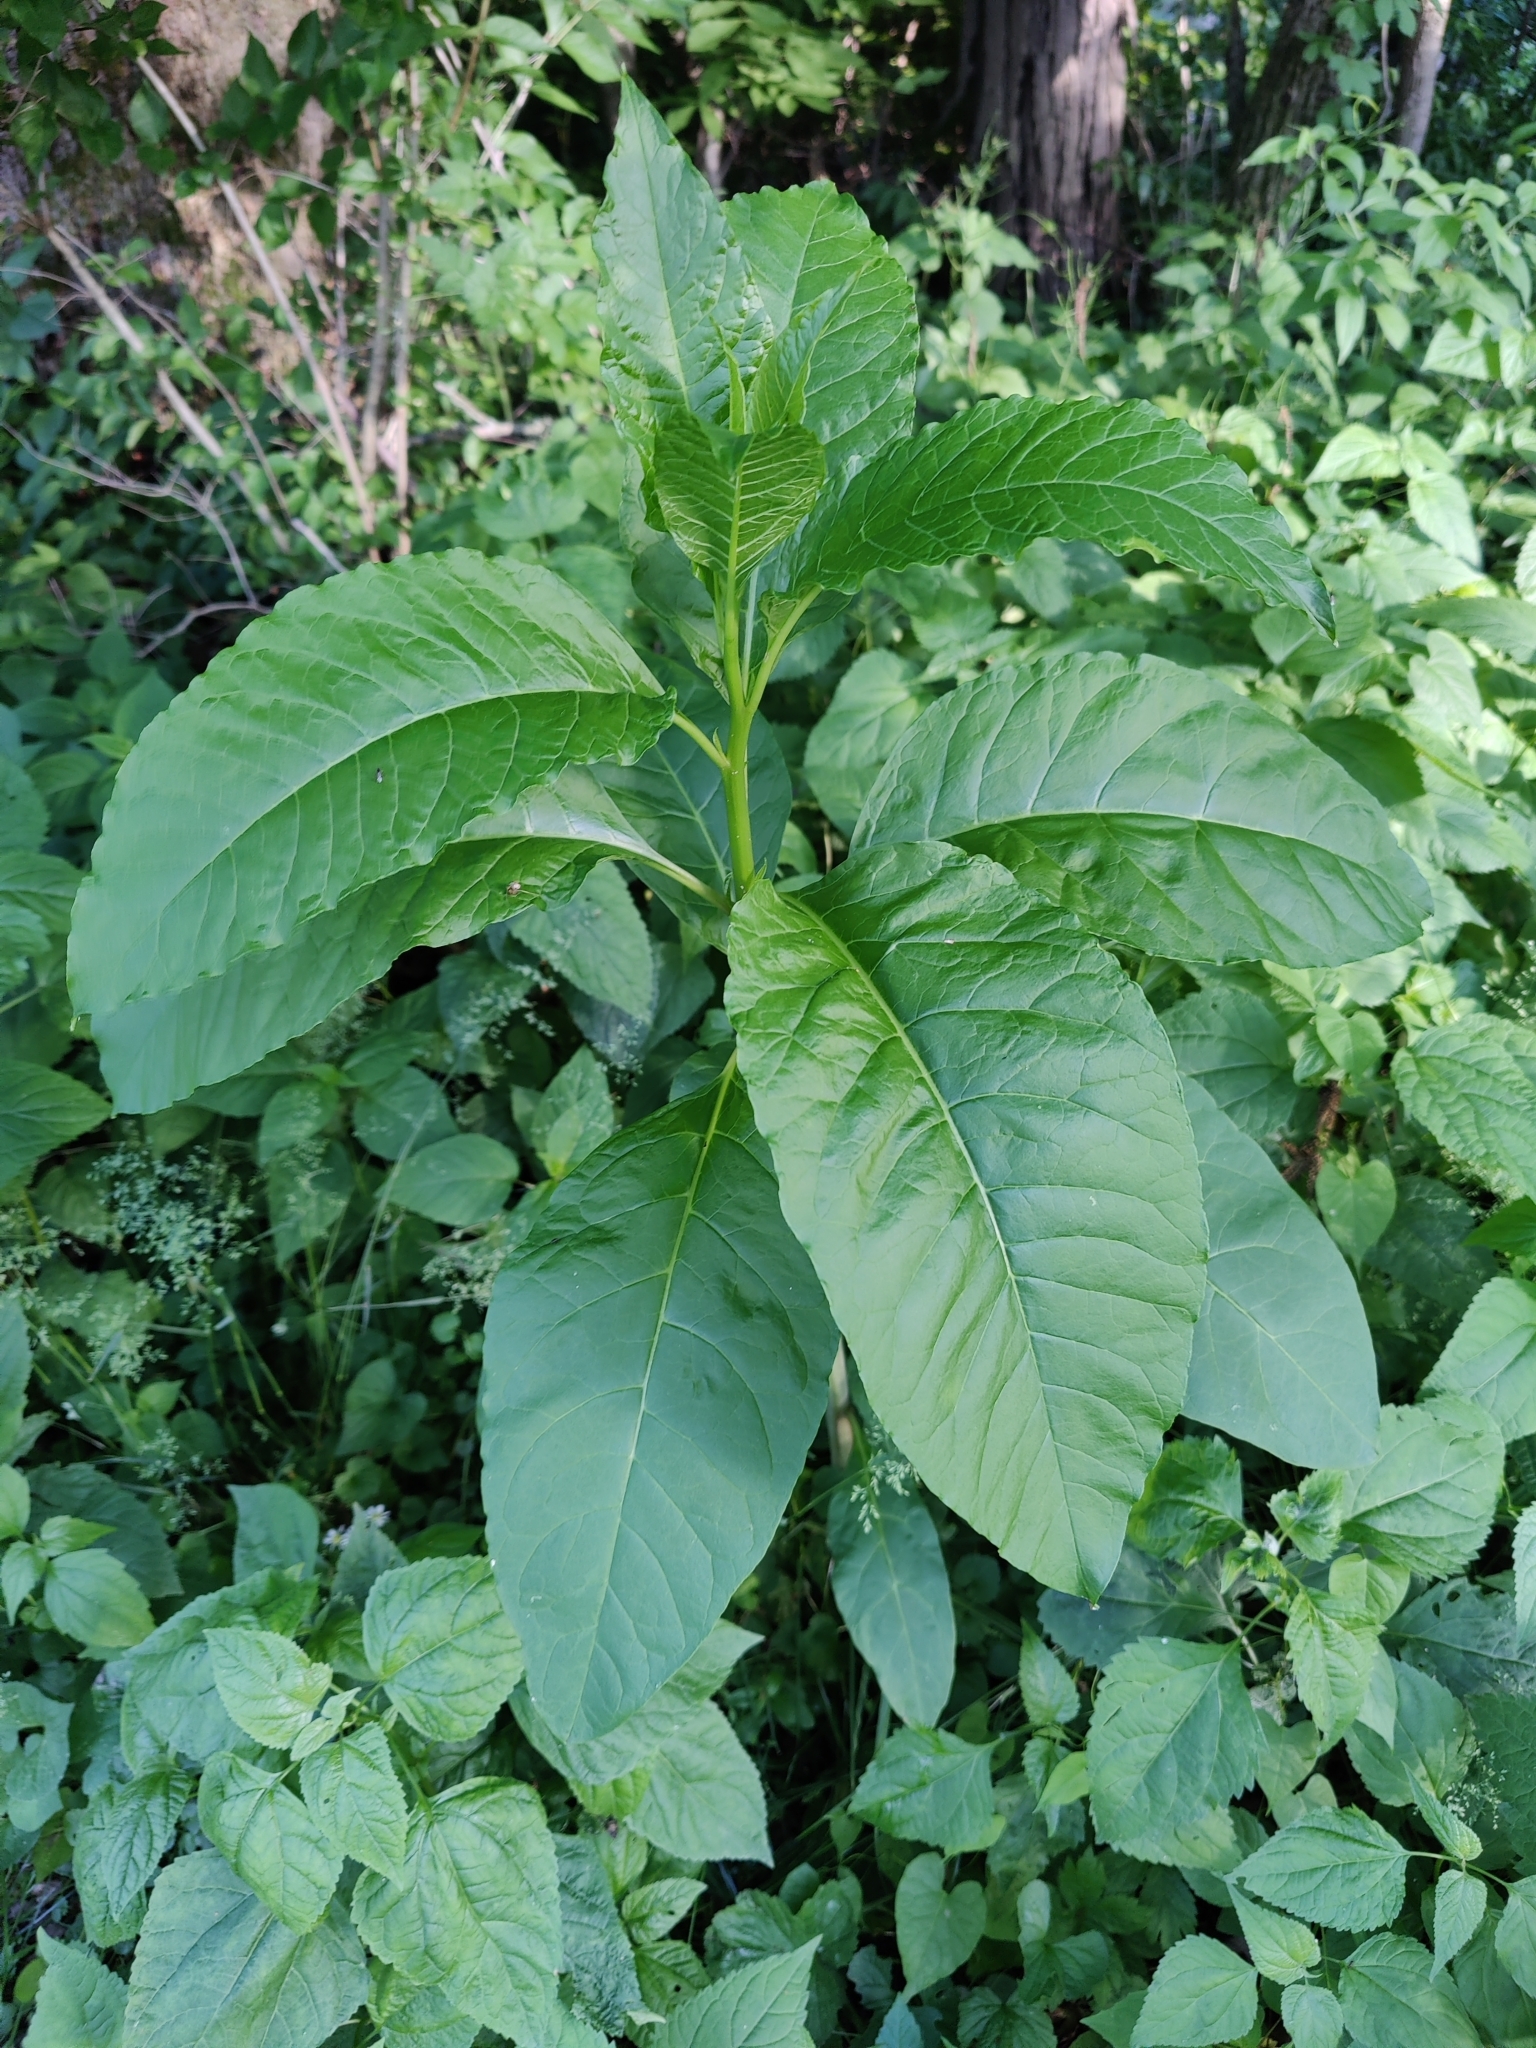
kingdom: Plantae
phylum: Tracheophyta
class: Magnoliopsida
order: Caryophyllales
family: Phytolaccaceae
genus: Phytolacca
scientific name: Phytolacca americana
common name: American pokeweed
